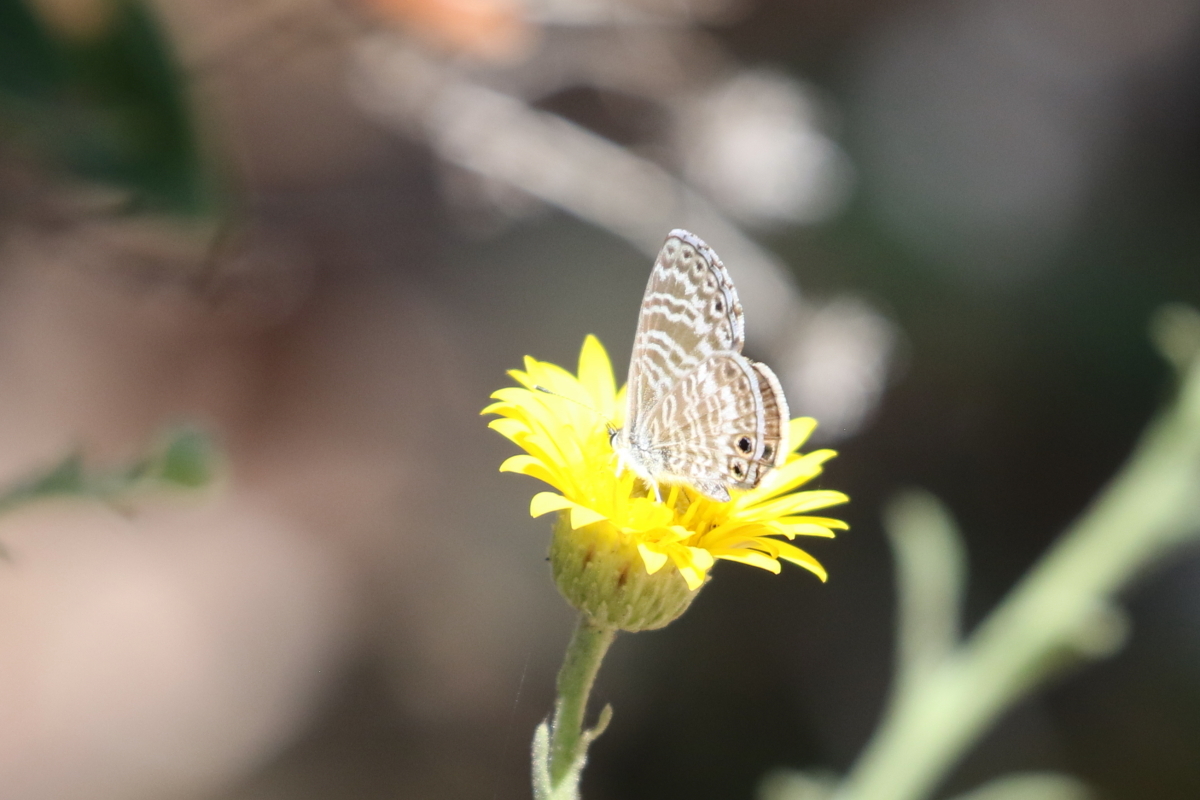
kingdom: Animalia
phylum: Arthropoda
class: Insecta
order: Lepidoptera
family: Lycaenidae
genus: Leptotes
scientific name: Leptotes marina
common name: Marine blue
